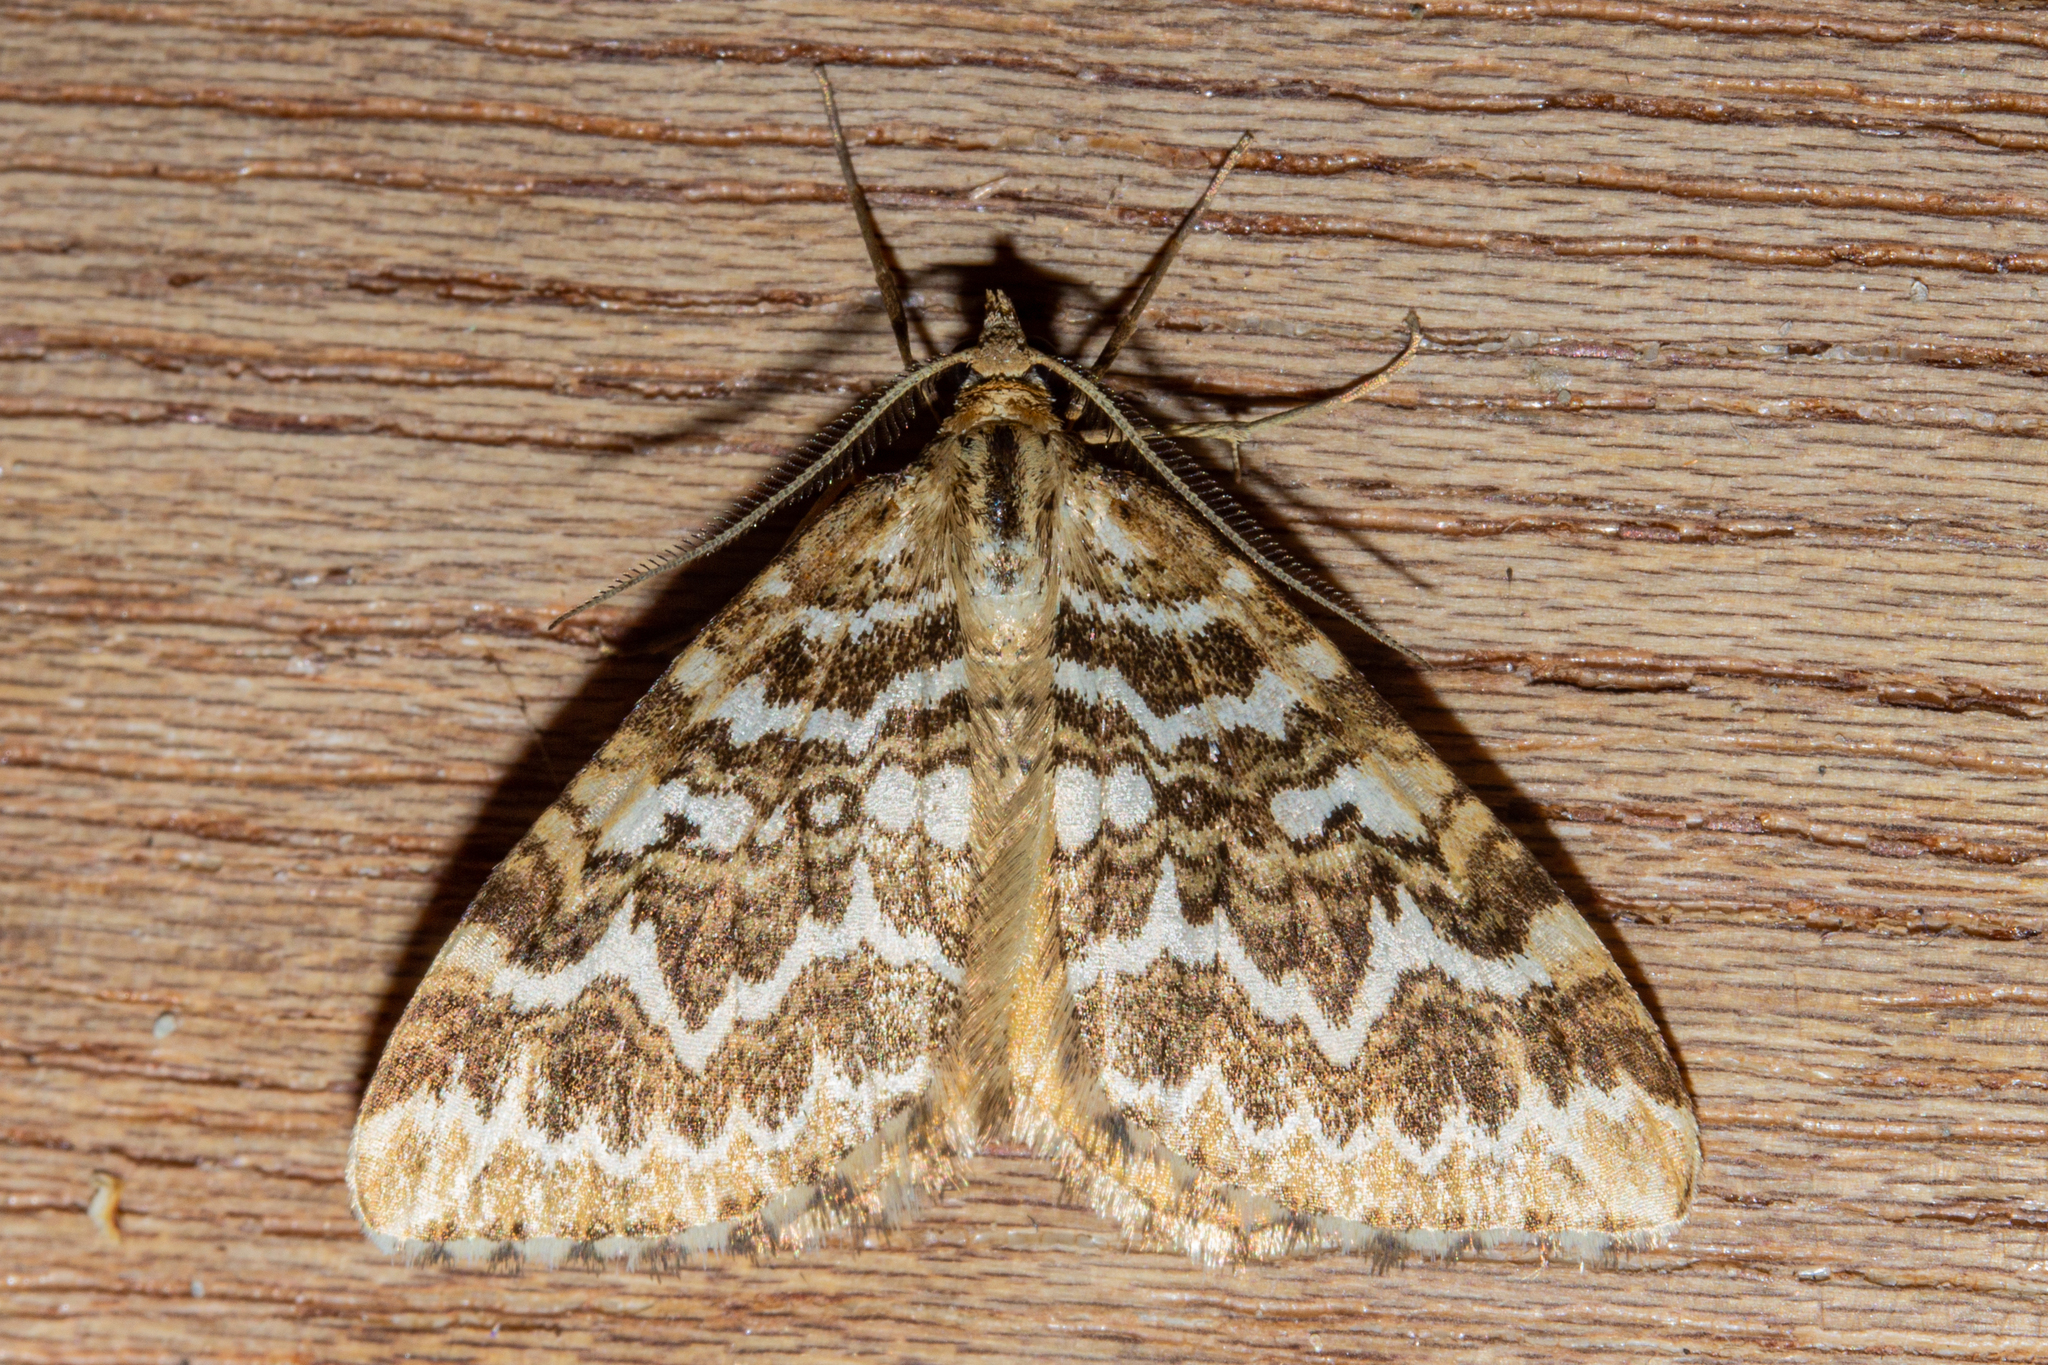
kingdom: Animalia
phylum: Arthropoda
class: Insecta
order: Lepidoptera
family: Geometridae
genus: Asaphodes
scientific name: Asaphodes clarata
